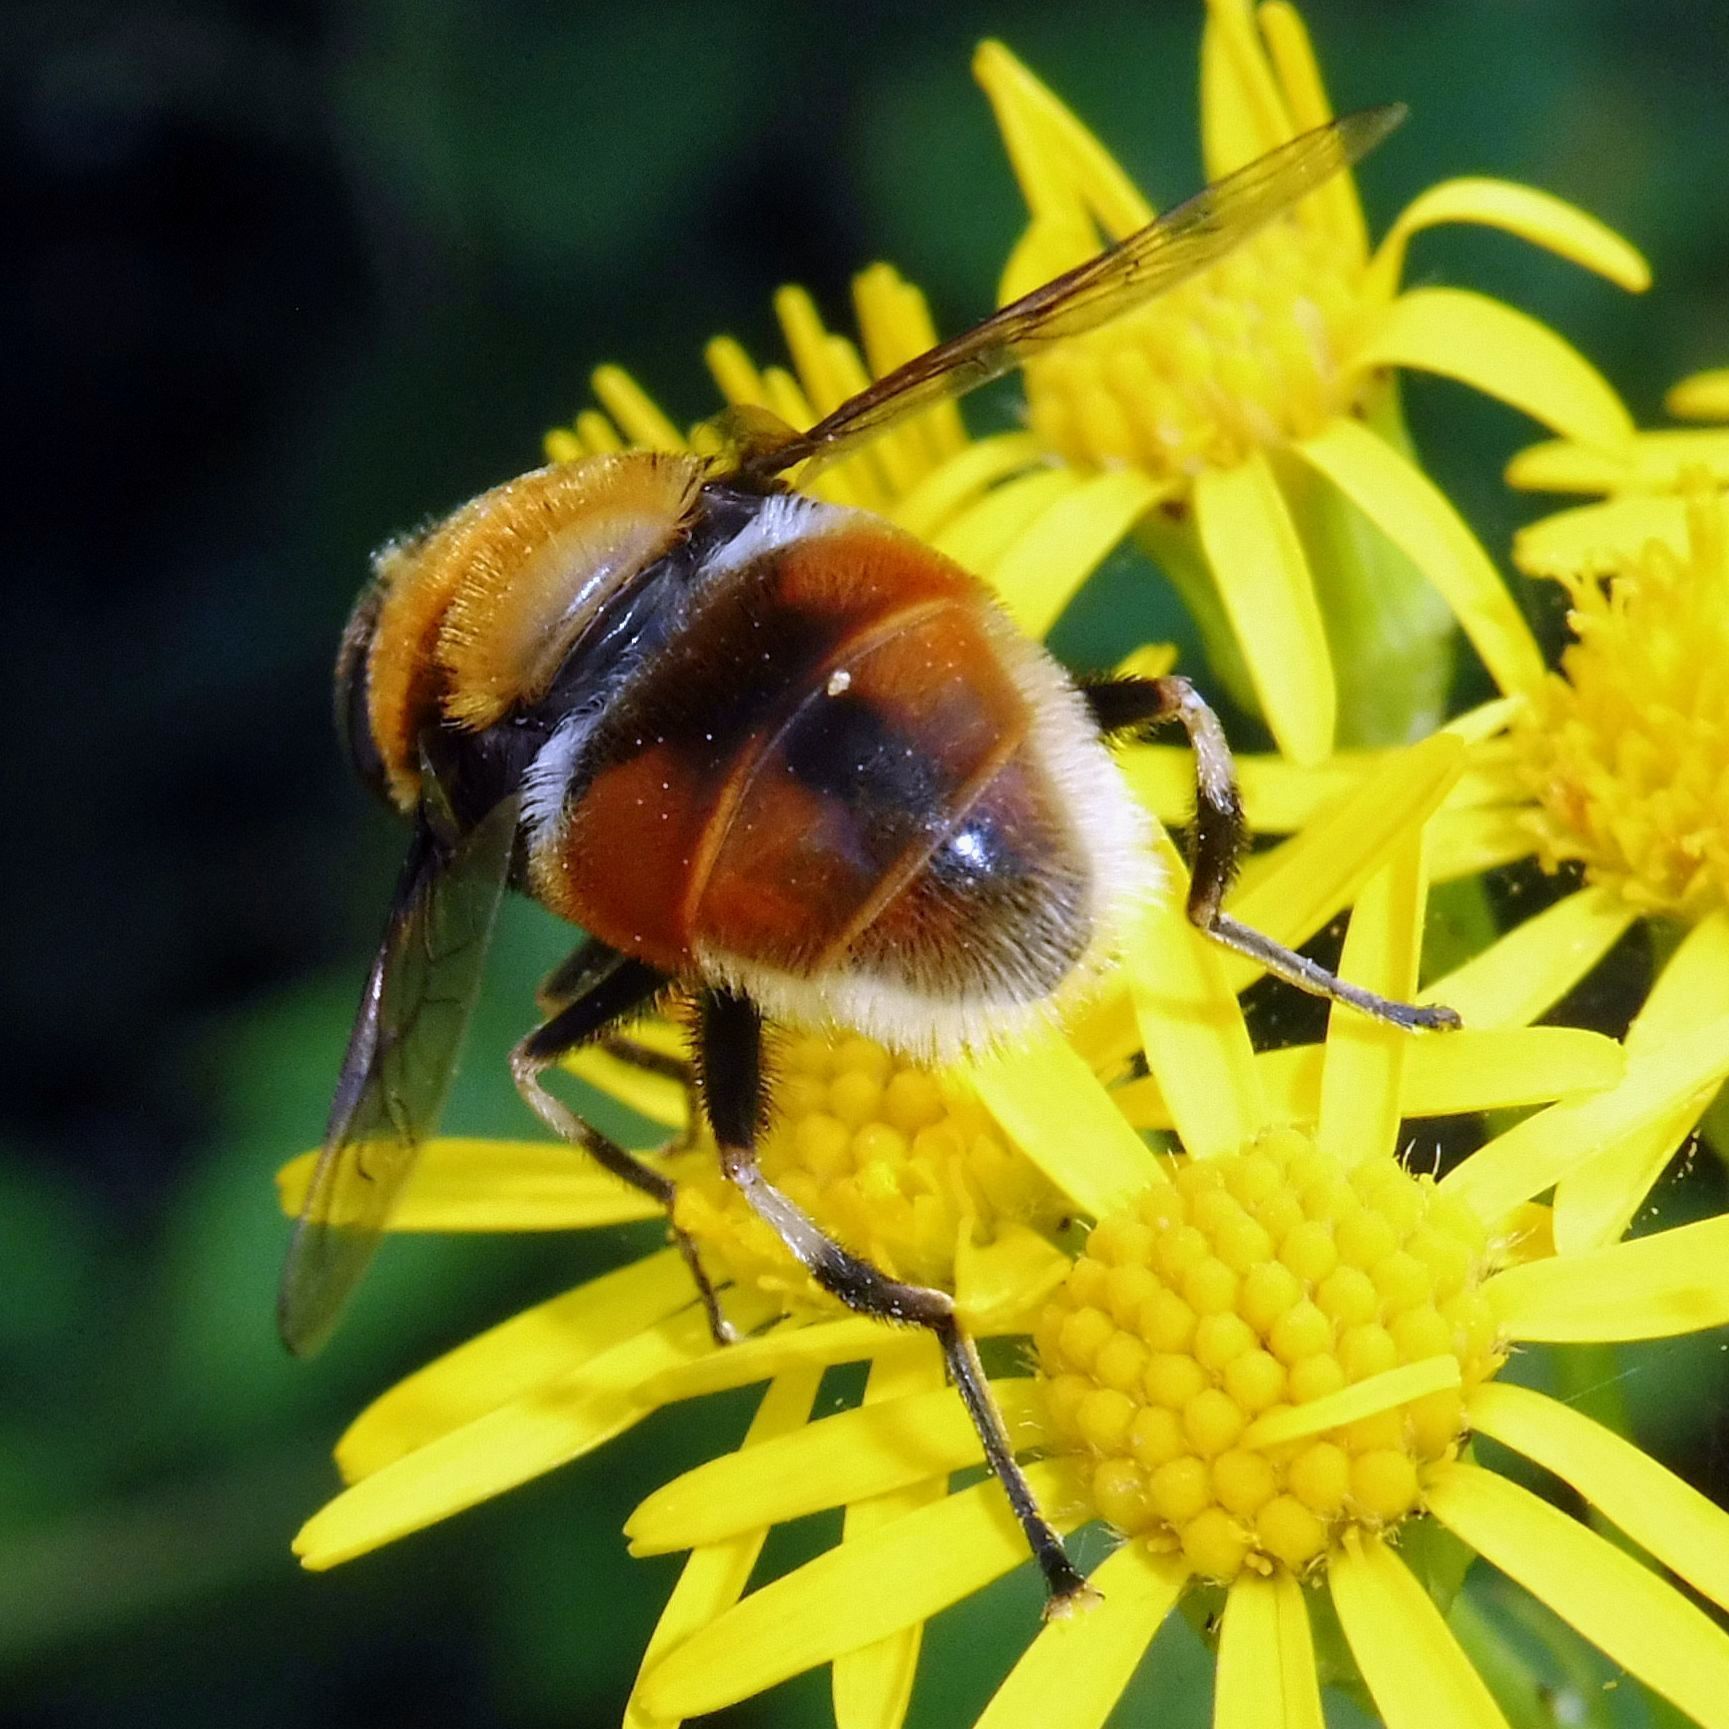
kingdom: Animalia
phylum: Arthropoda
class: Insecta
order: Diptera
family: Syrphidae
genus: Eristalis
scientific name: Eristalis intricaria
